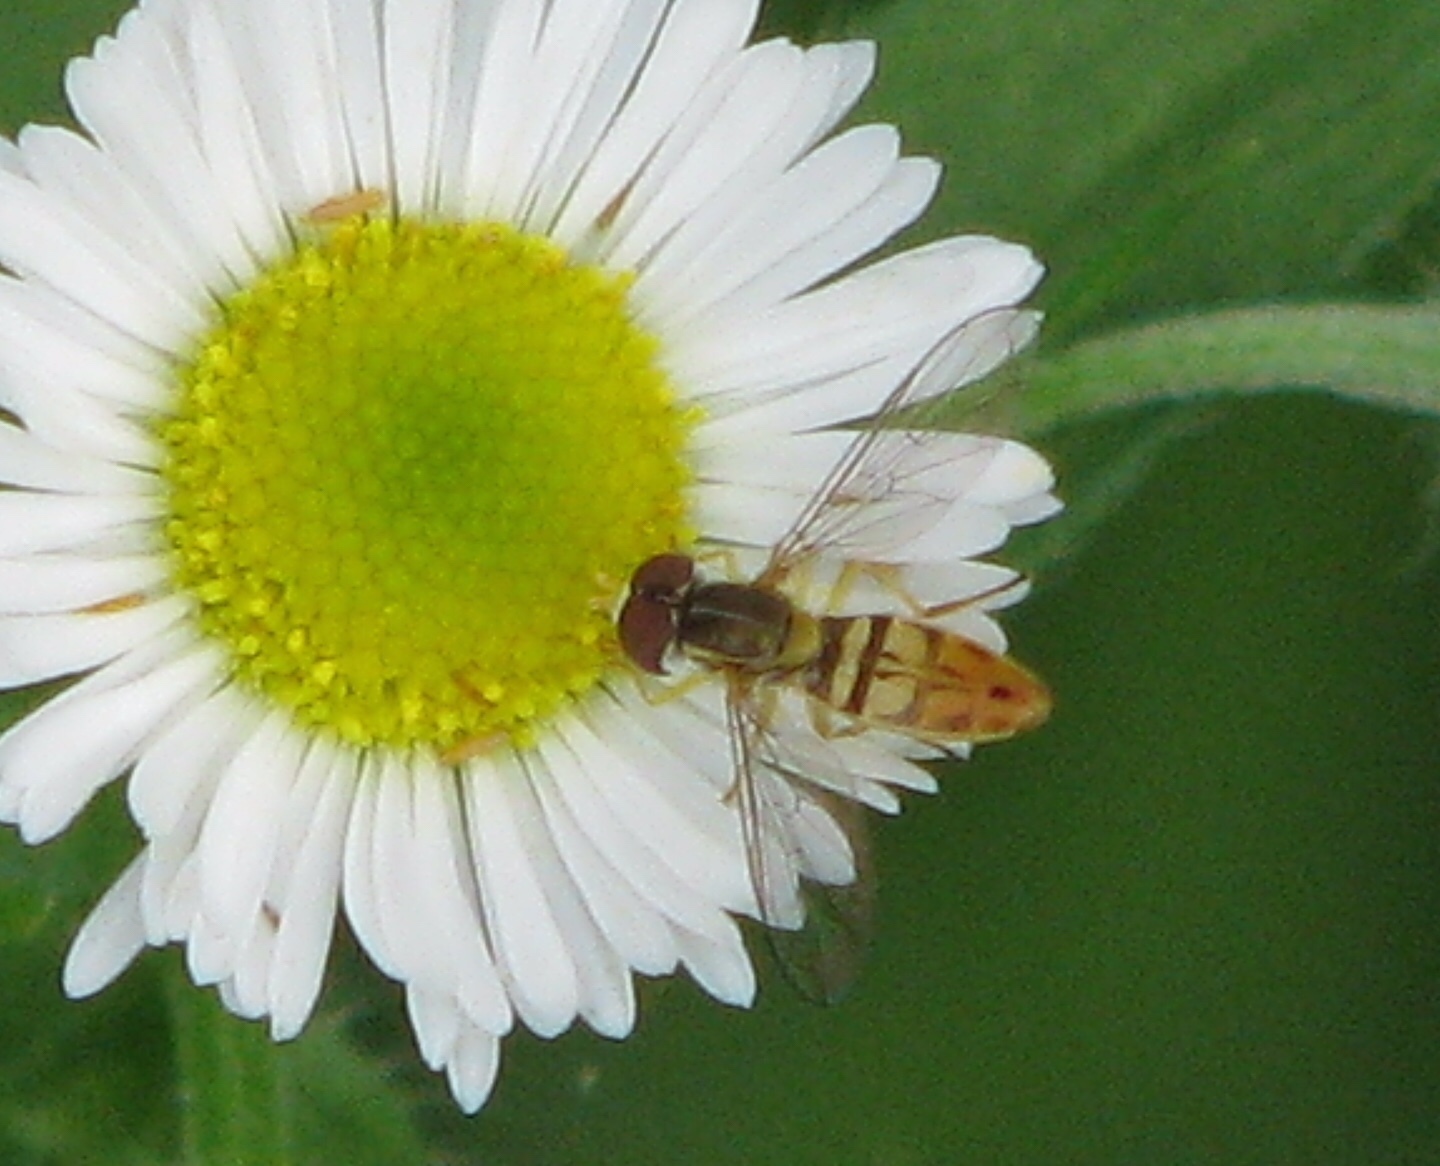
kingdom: Animalia
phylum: Arthropoda
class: Insecta
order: Diptera
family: Syrphidae
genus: Toxomerus
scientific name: Toxomerus marginatus
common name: Syrphid fly
